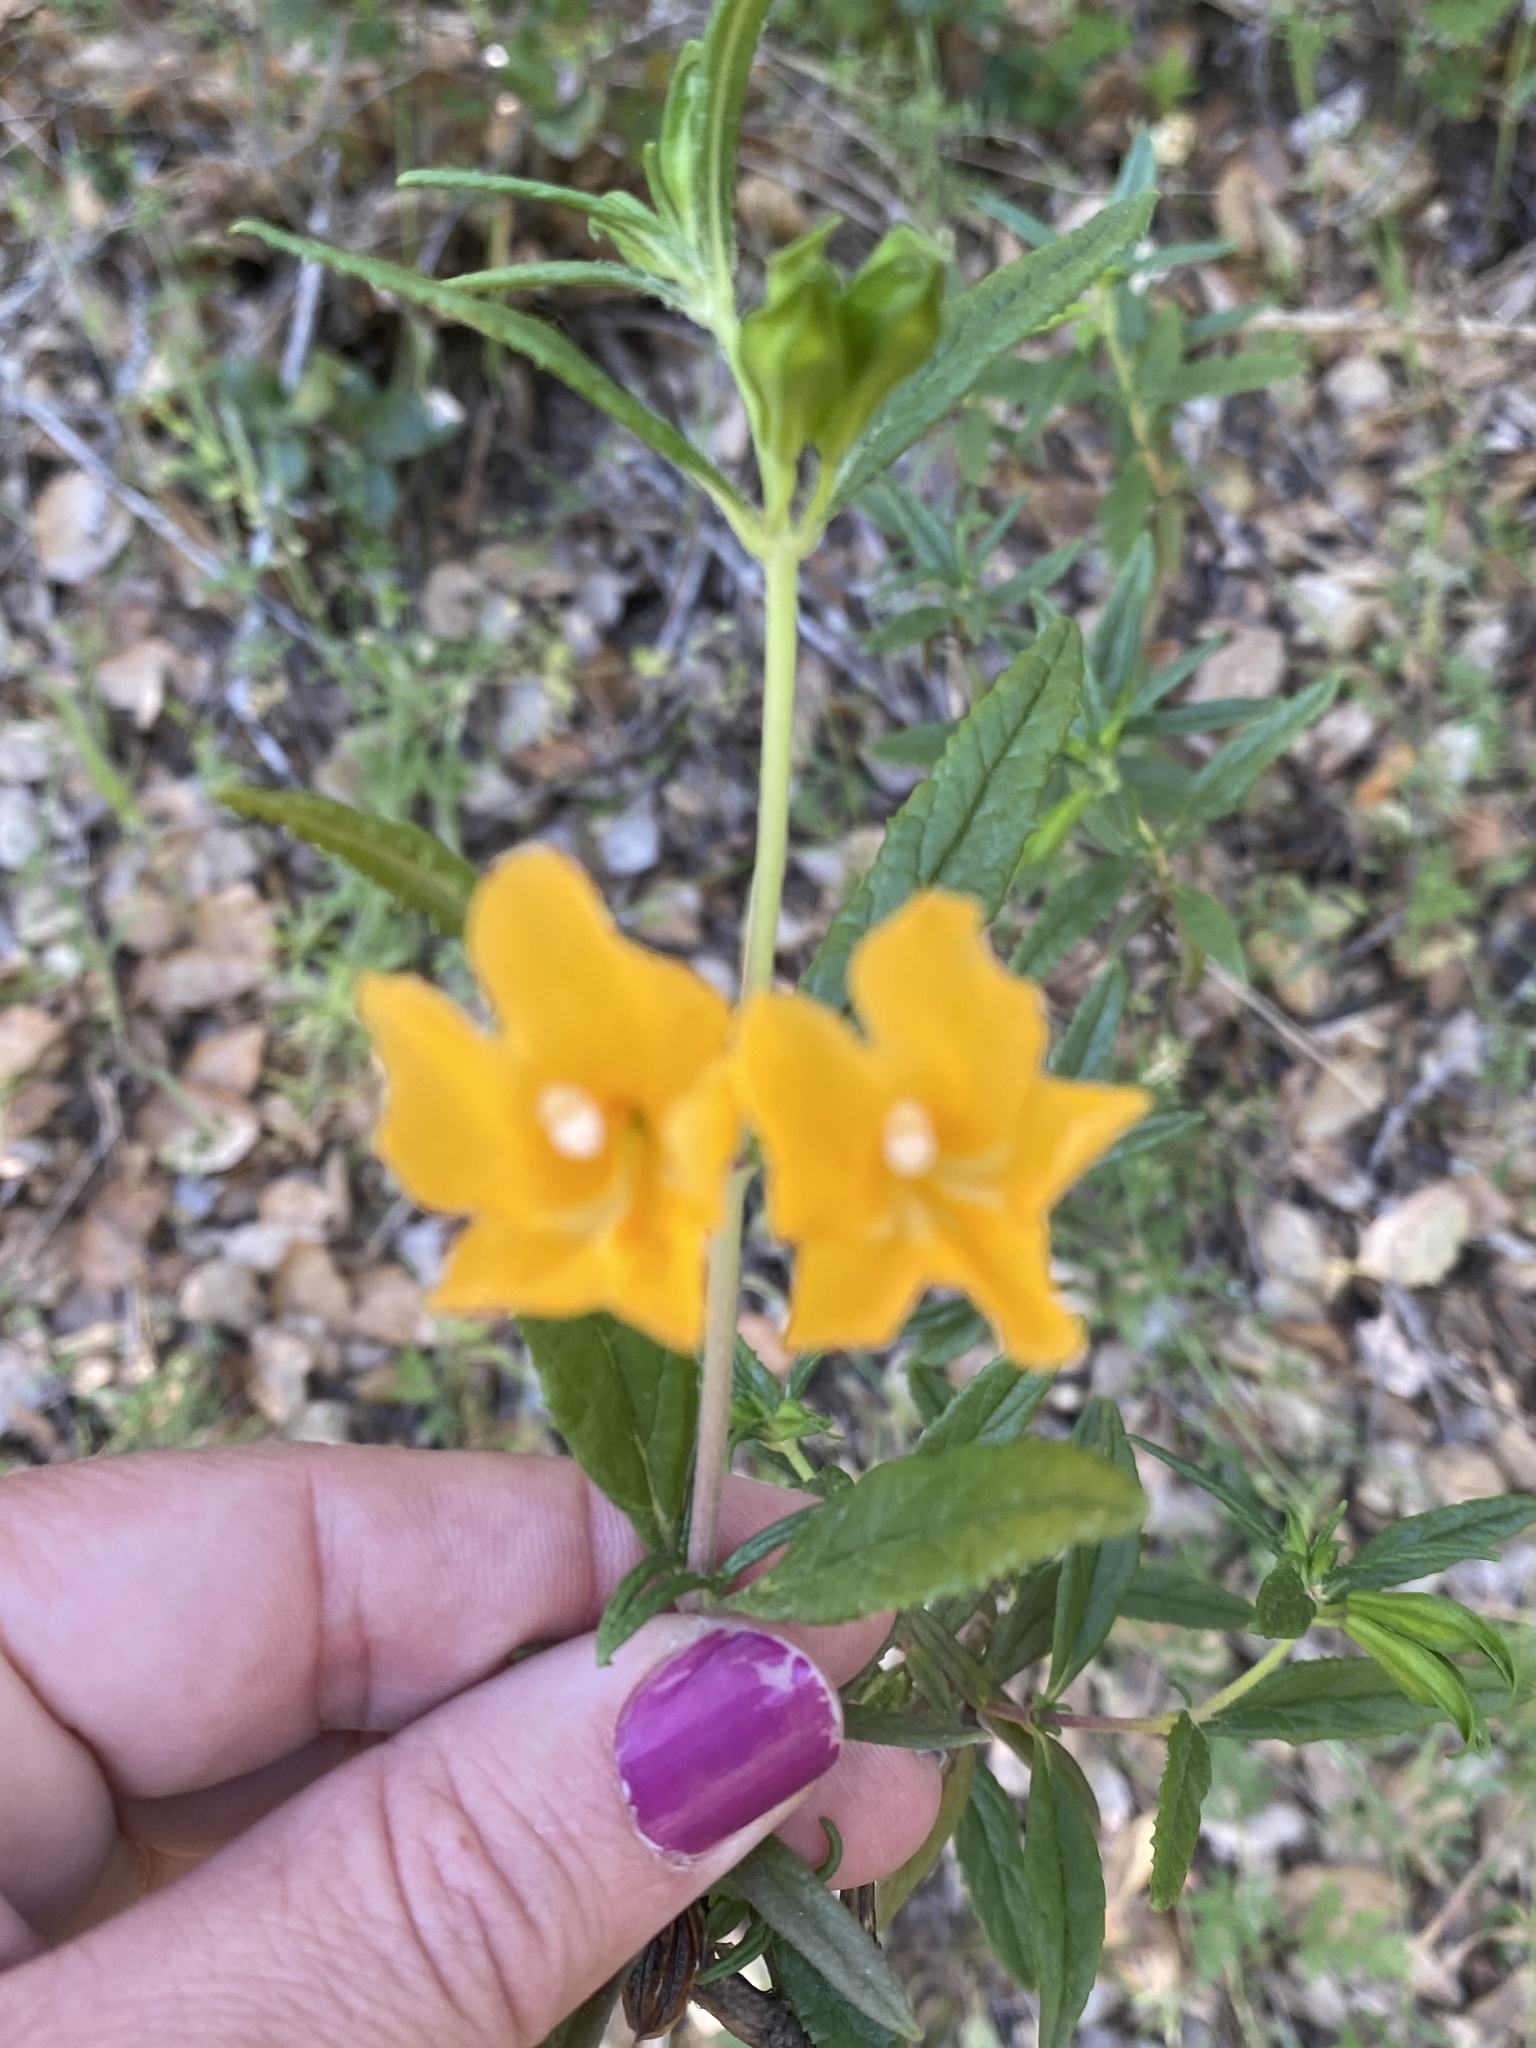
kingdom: Plantae
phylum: Tracheophyta
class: Magnoliopsida
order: Lamiales
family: Phrymaceae
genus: Diplacus
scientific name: Diplacus aurantiacus
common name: Bush monkey-flower
